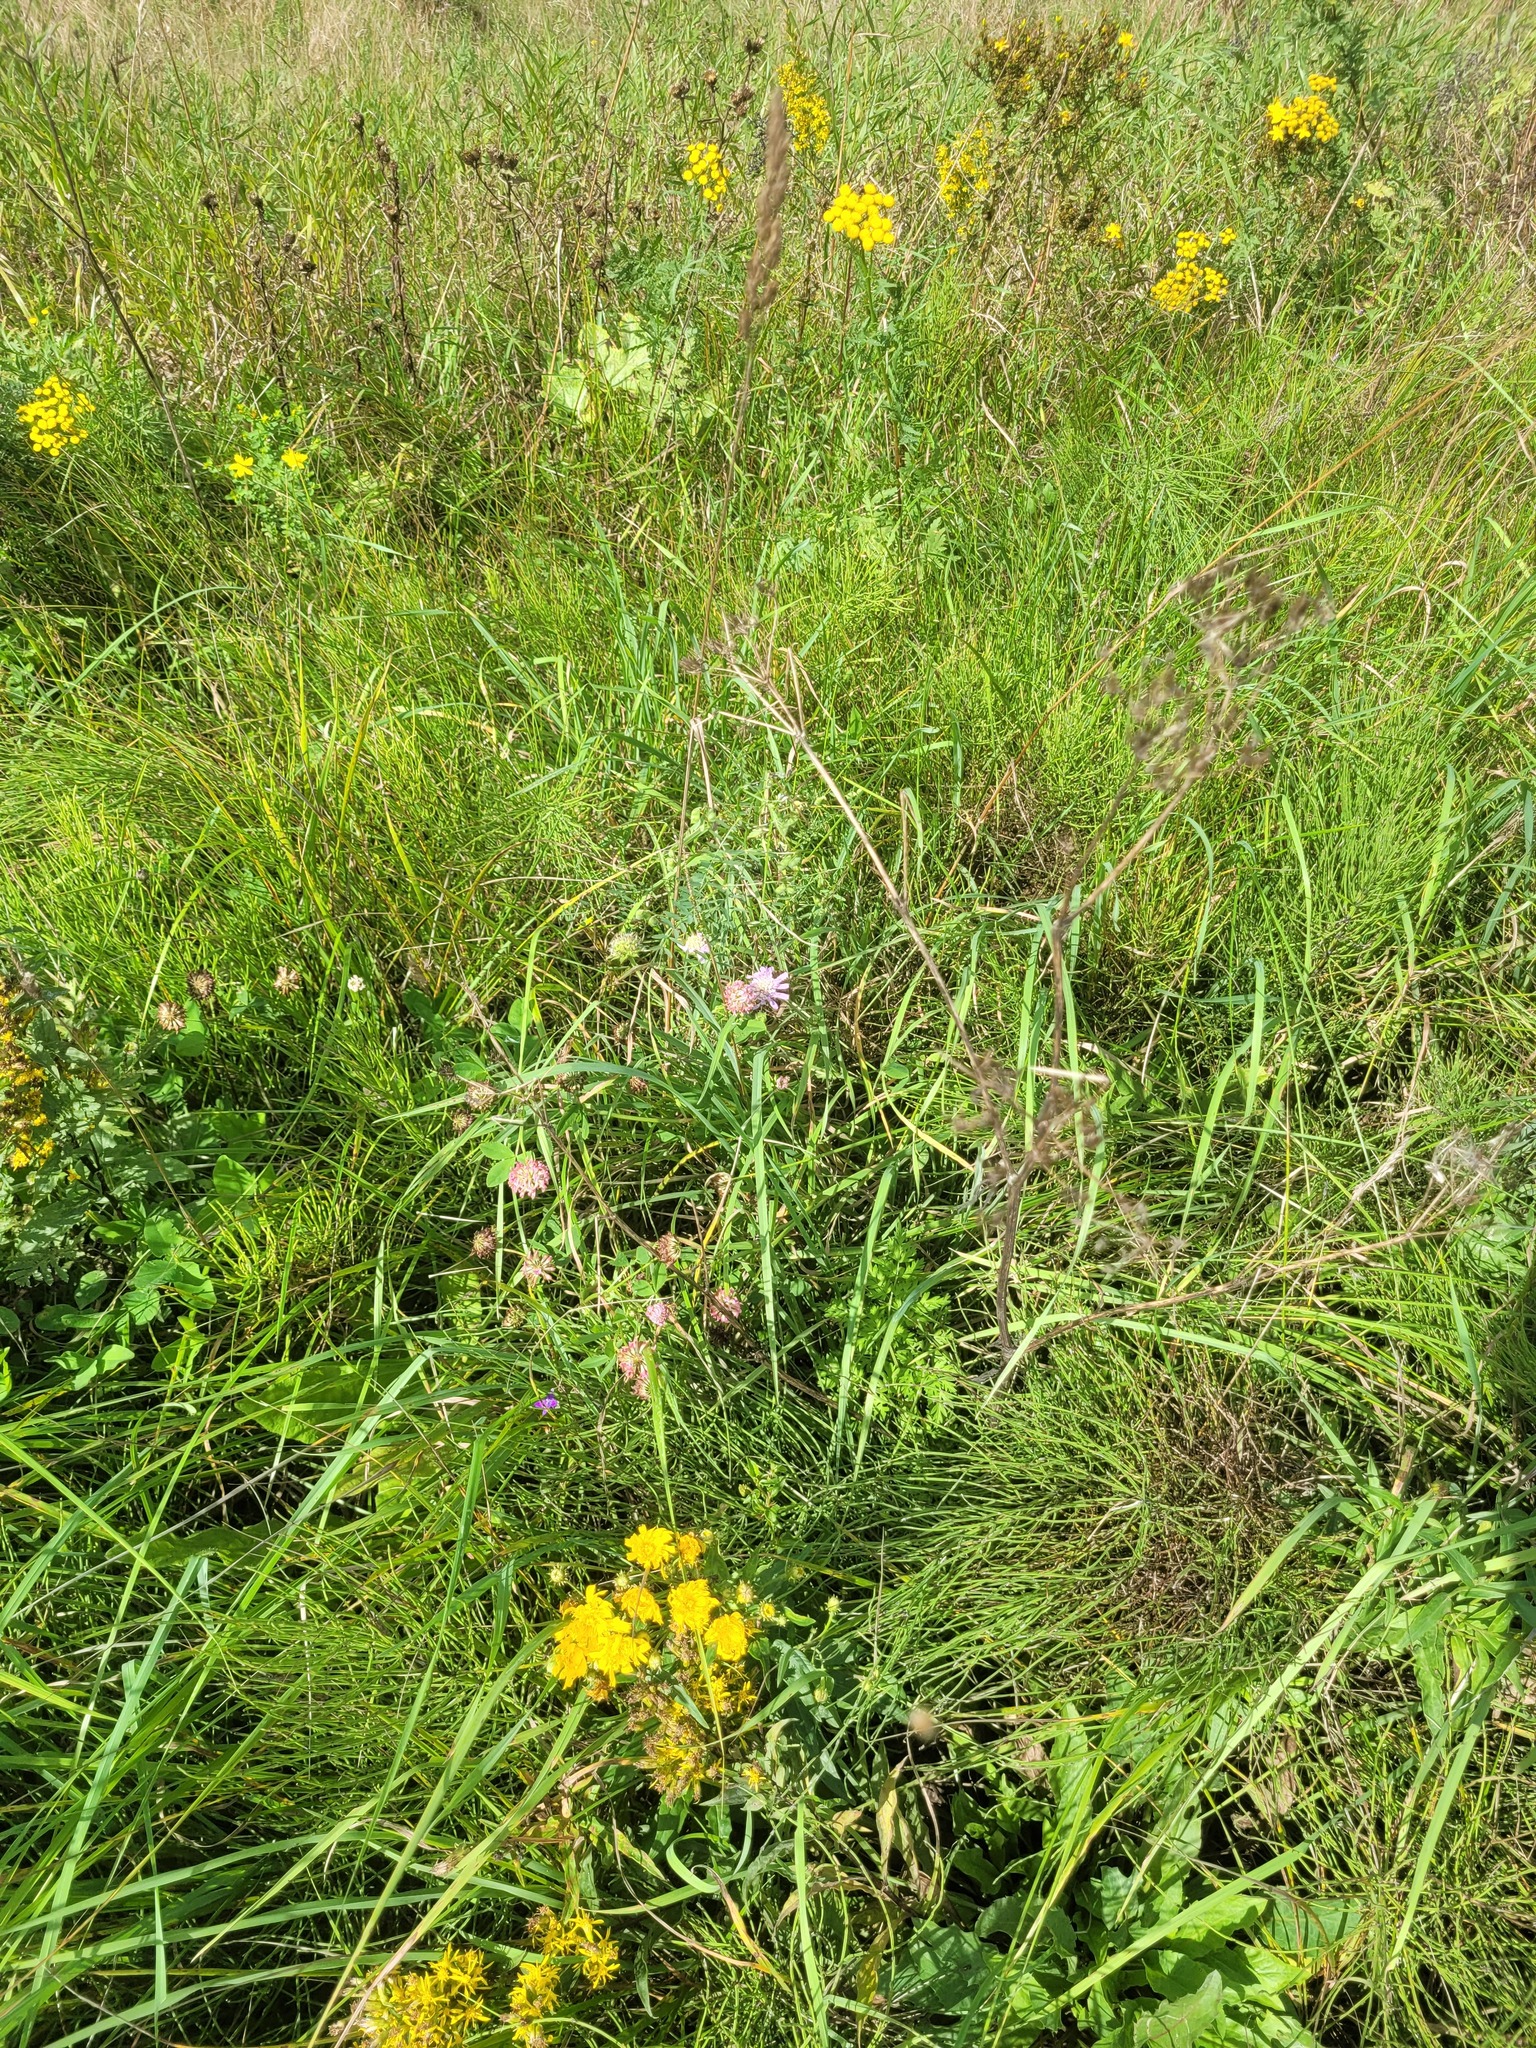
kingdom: Plantae
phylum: Tracheophyta
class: Magnoliopsida
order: Fabales
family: Fabaceae
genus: Trifolium
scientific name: Trifolium hybridum
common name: Alsike clover
